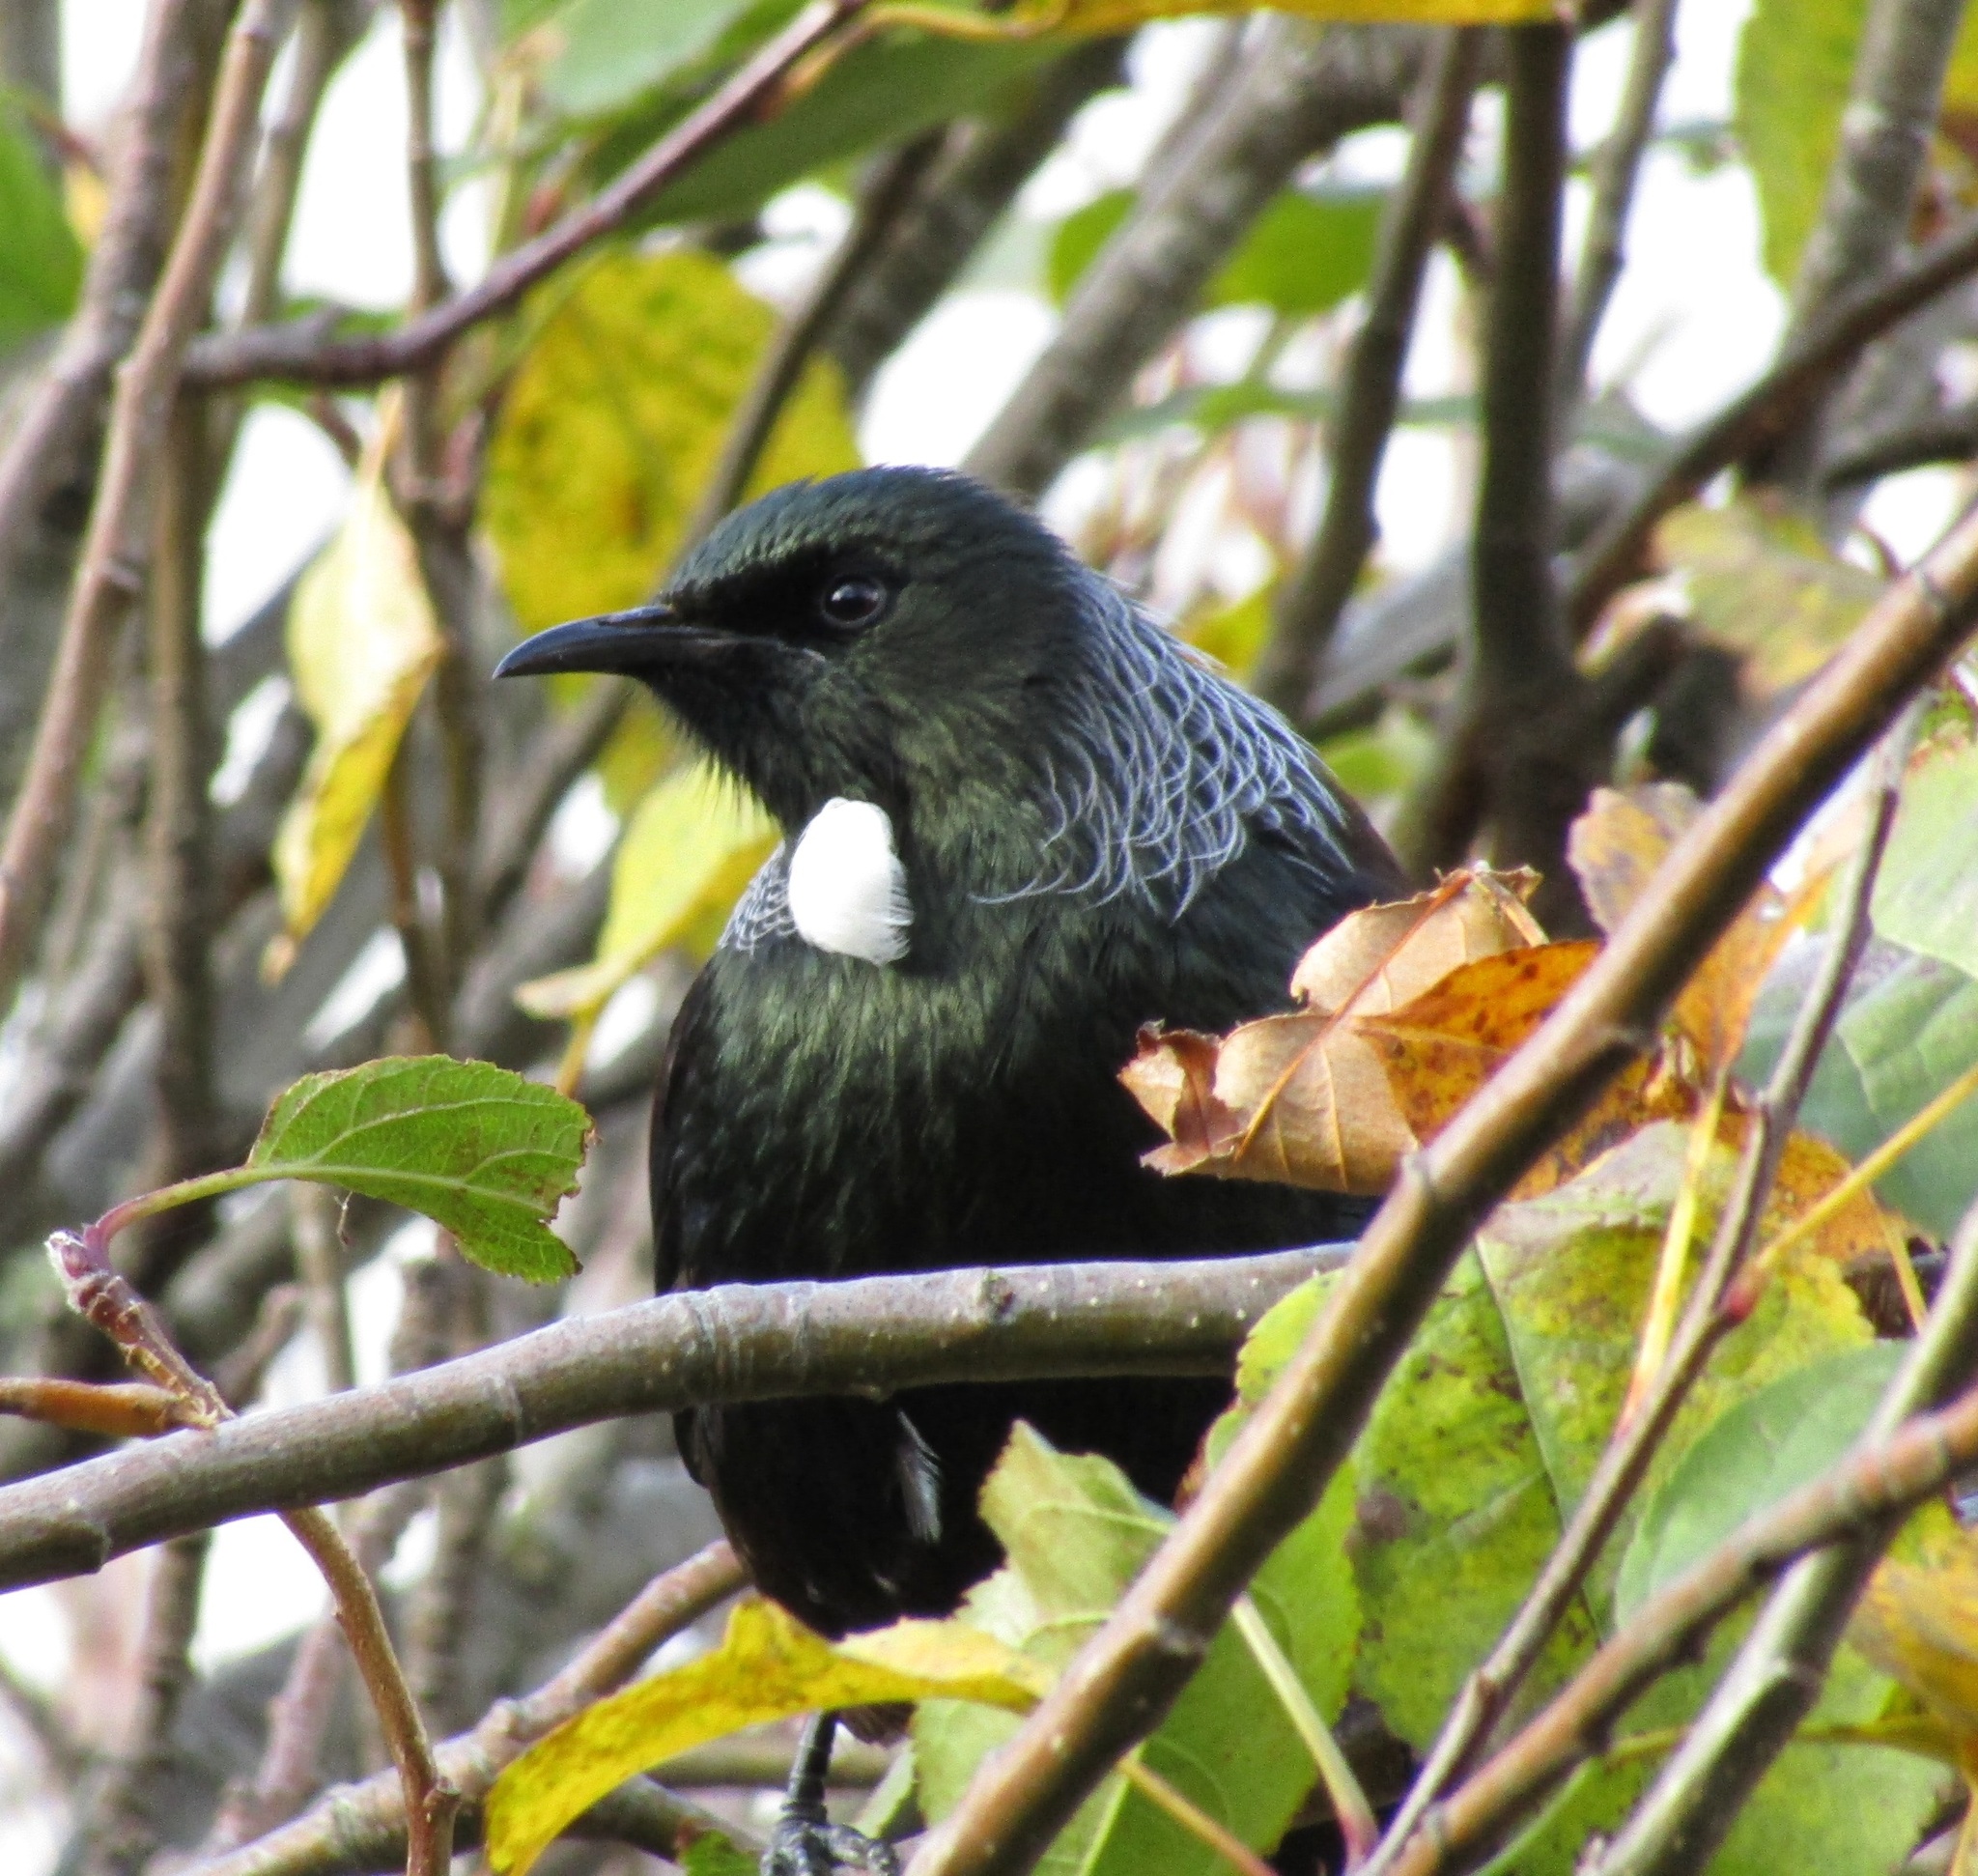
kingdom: Animalia
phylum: Chordata
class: Aves
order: Passeriformes
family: Meliphagidae
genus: Prosthemadera
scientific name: Prosthemadera novaeseelandiae
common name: Tui
